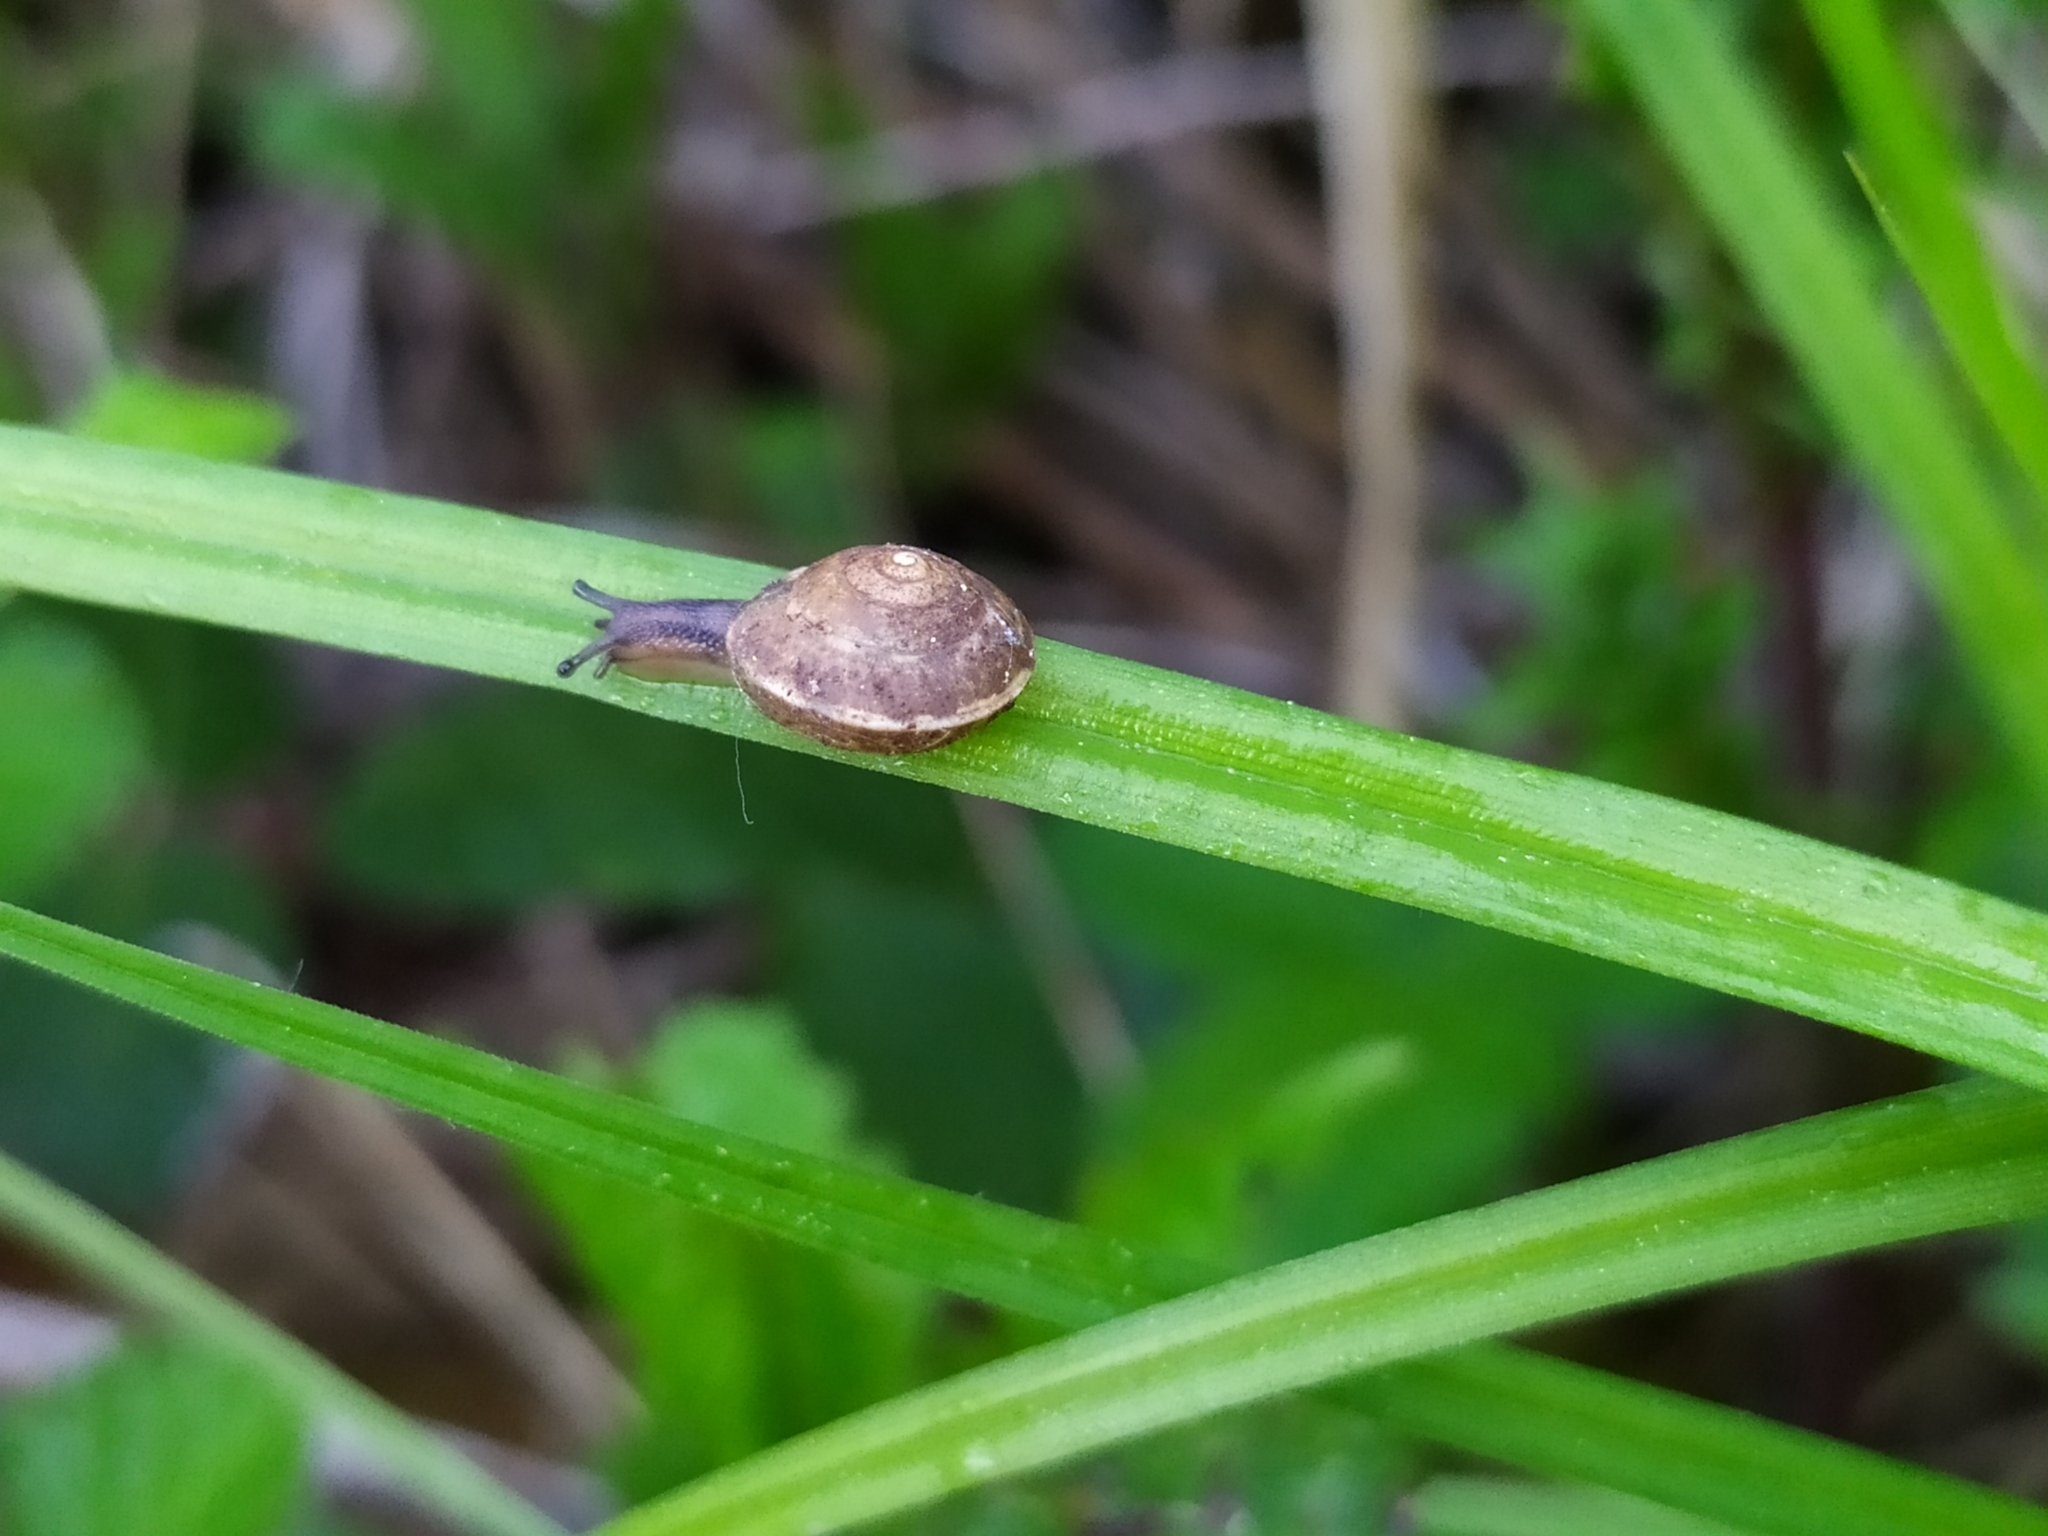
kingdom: Animalia
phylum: Mollusca
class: Gastropoda
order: Stylommatophora
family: Hygromiidae
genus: Hygromia
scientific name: Hygromia cinctella
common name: Girdled snail
